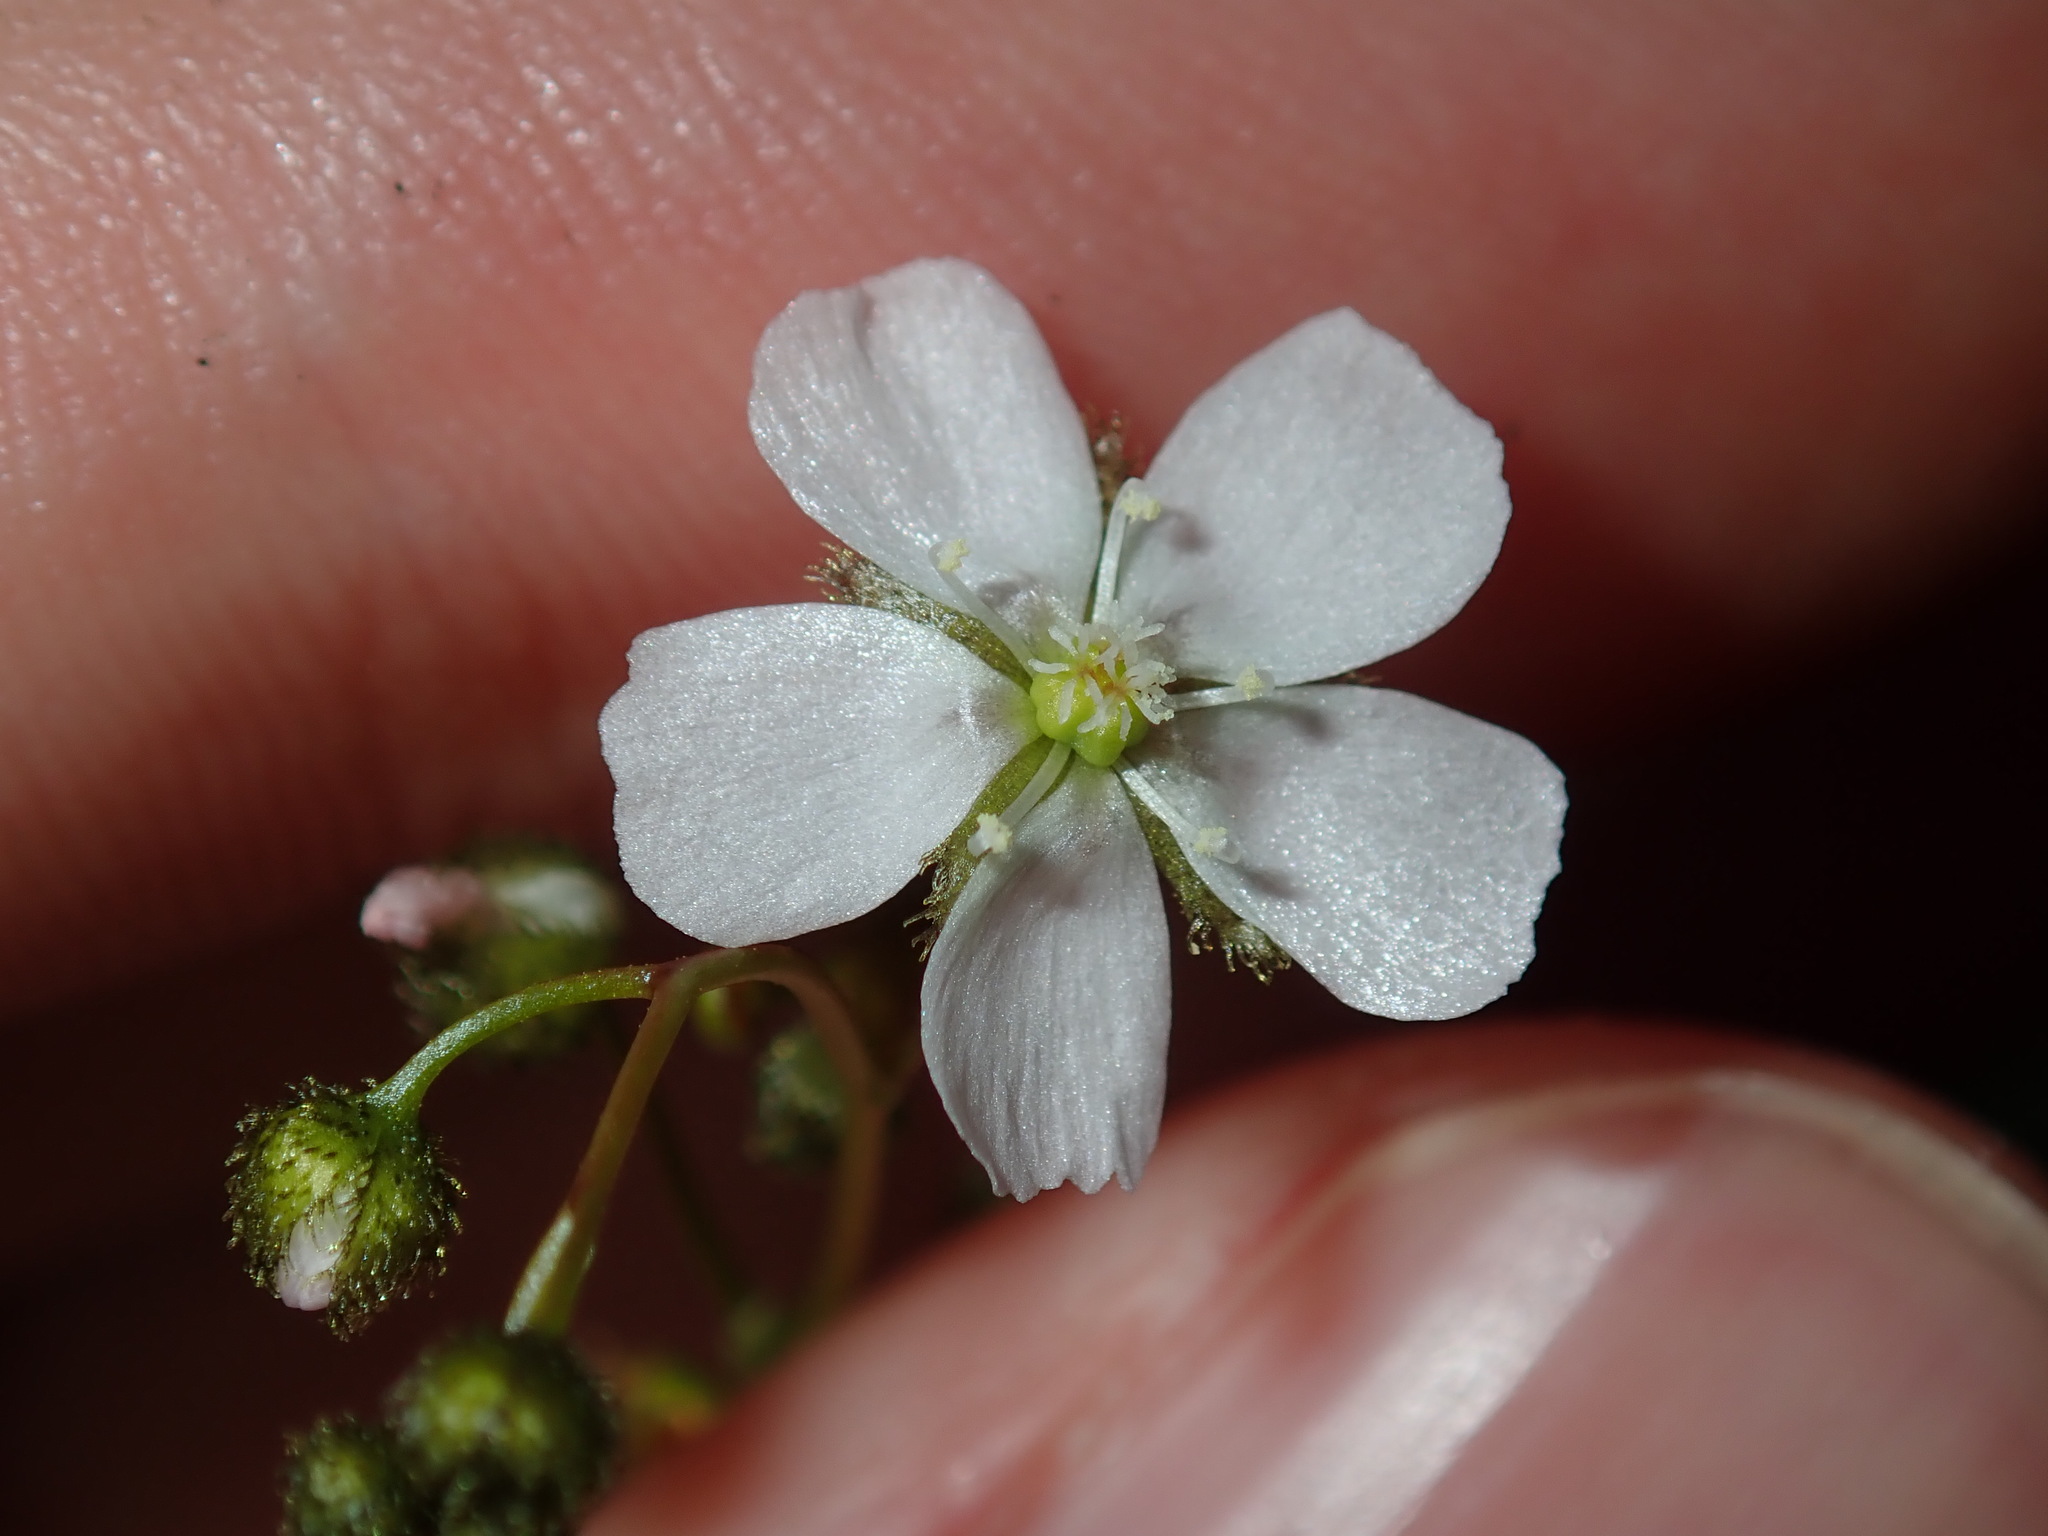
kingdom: Plantae
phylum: Tracheophyta
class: Magnoliopsida
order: Caryophyllales
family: Droseraceae
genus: Drosera
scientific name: Drosera peltata
